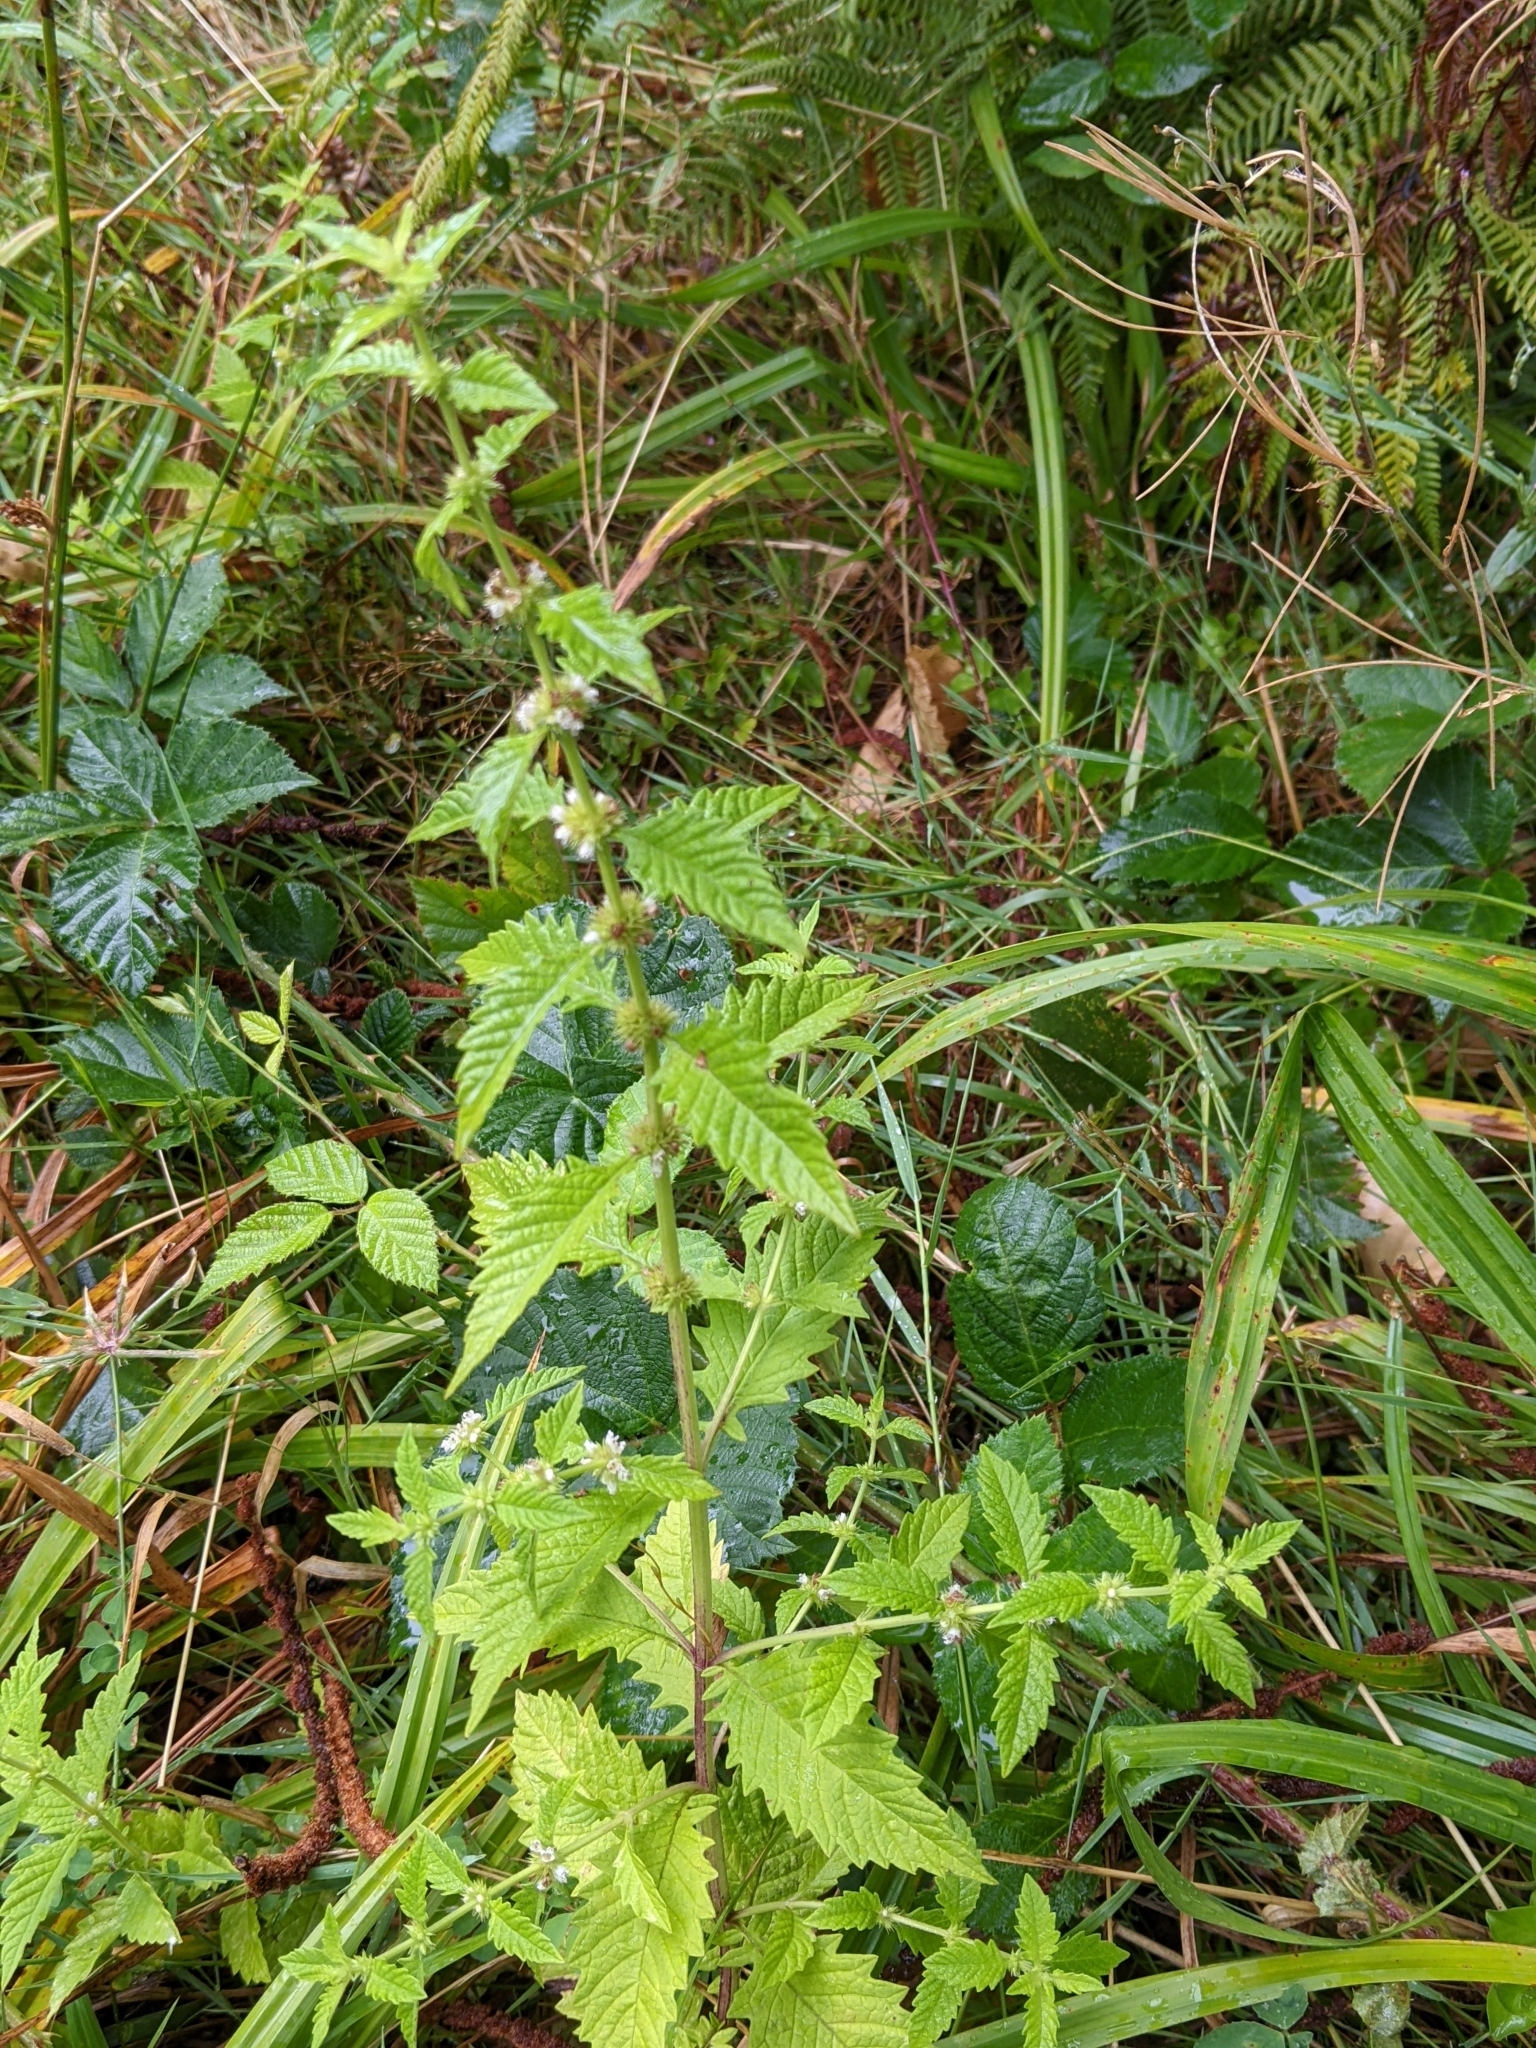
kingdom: Plantae
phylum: Tracheophyta
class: Magnoliopsida
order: Lamiales
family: Lamiaceae
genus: Lycopus
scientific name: Lycopus europaeus
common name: European bugleweed
